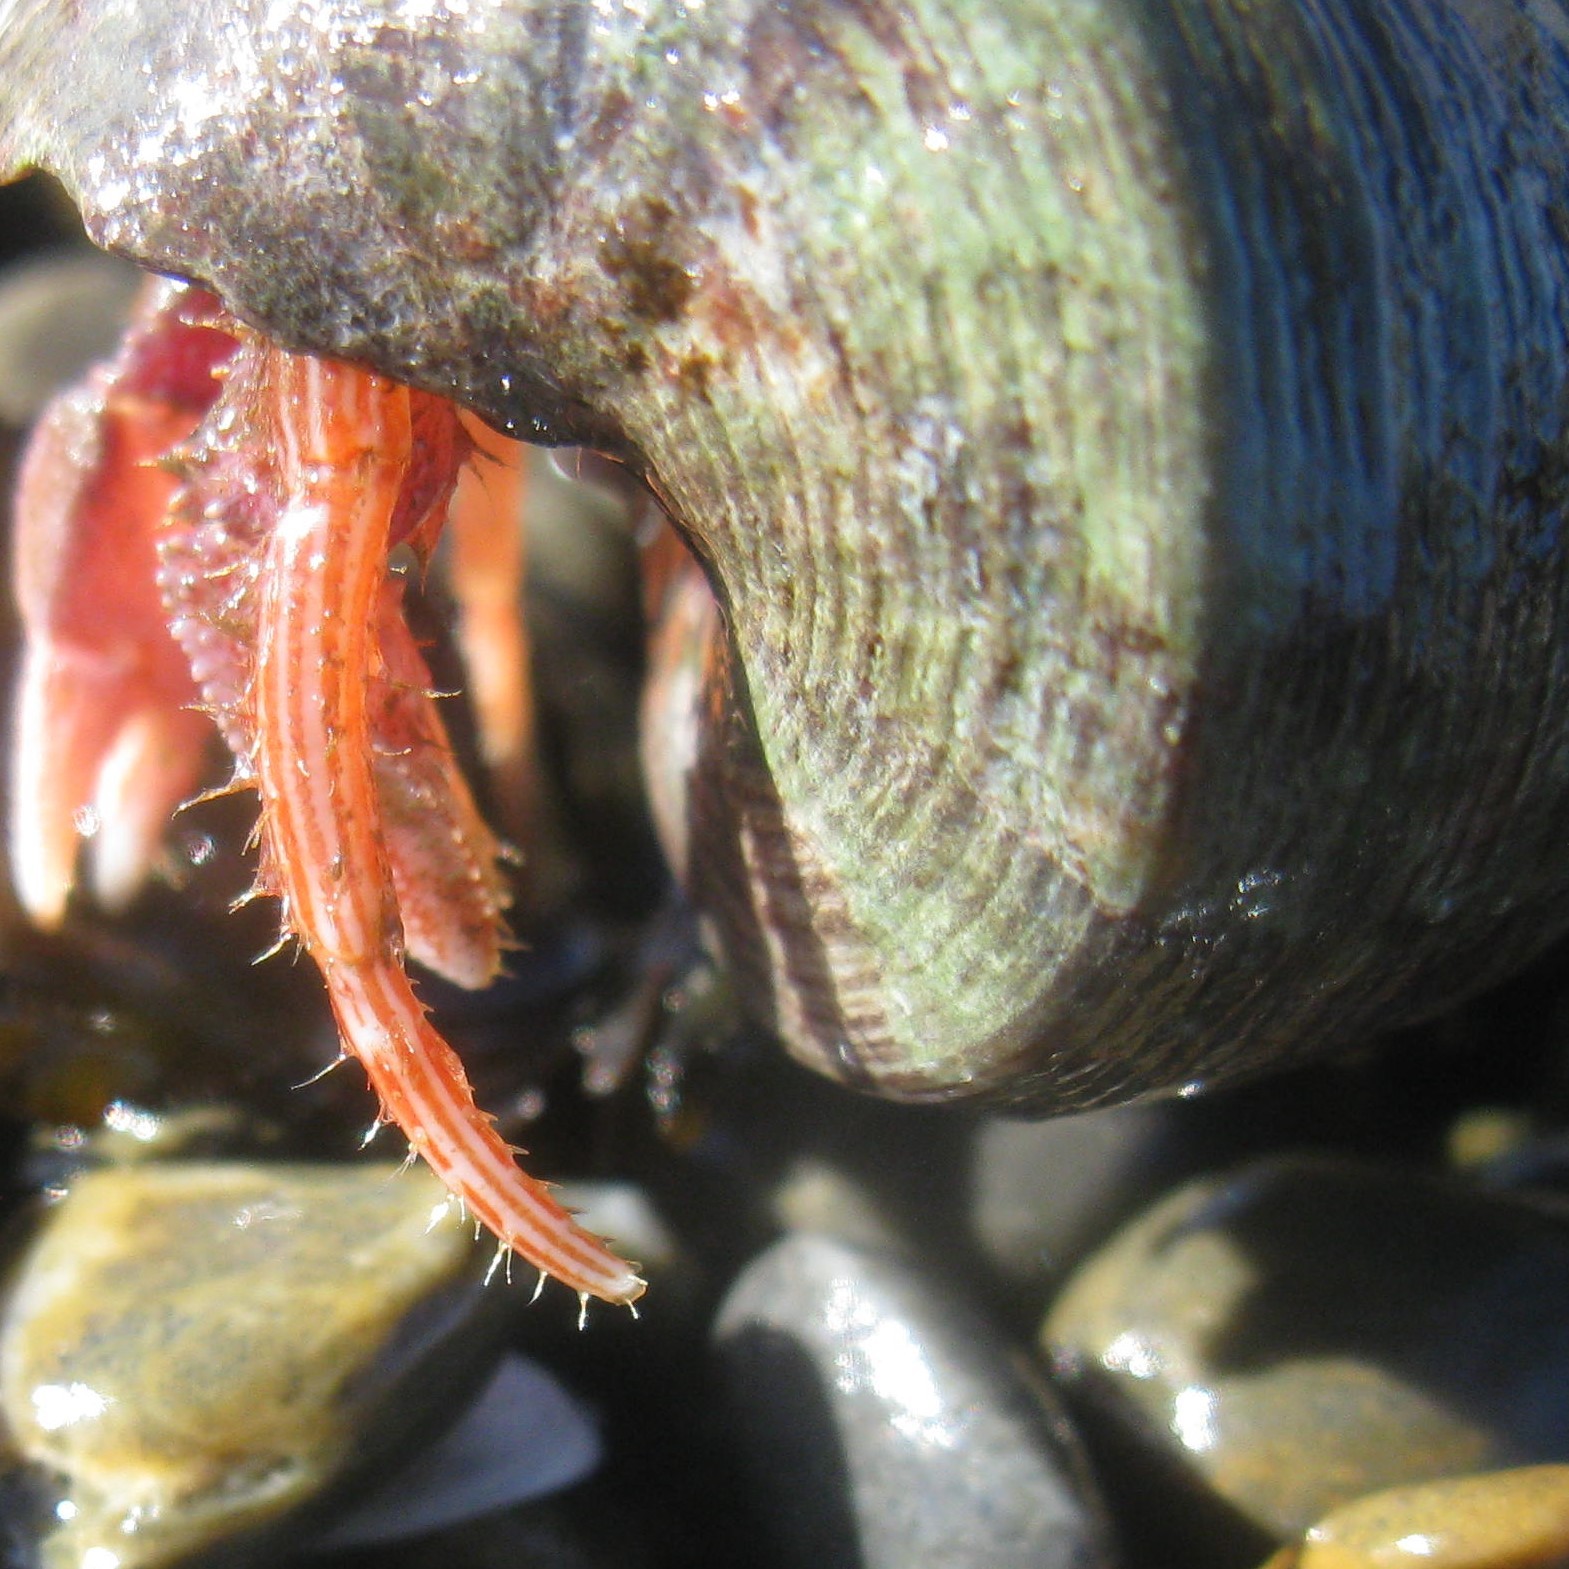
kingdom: Animalia
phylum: Arthropoda
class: Malacostraca
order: Decapoda
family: Paguridae
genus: Lophopagurus
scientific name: Lophopagurus thompsoni
